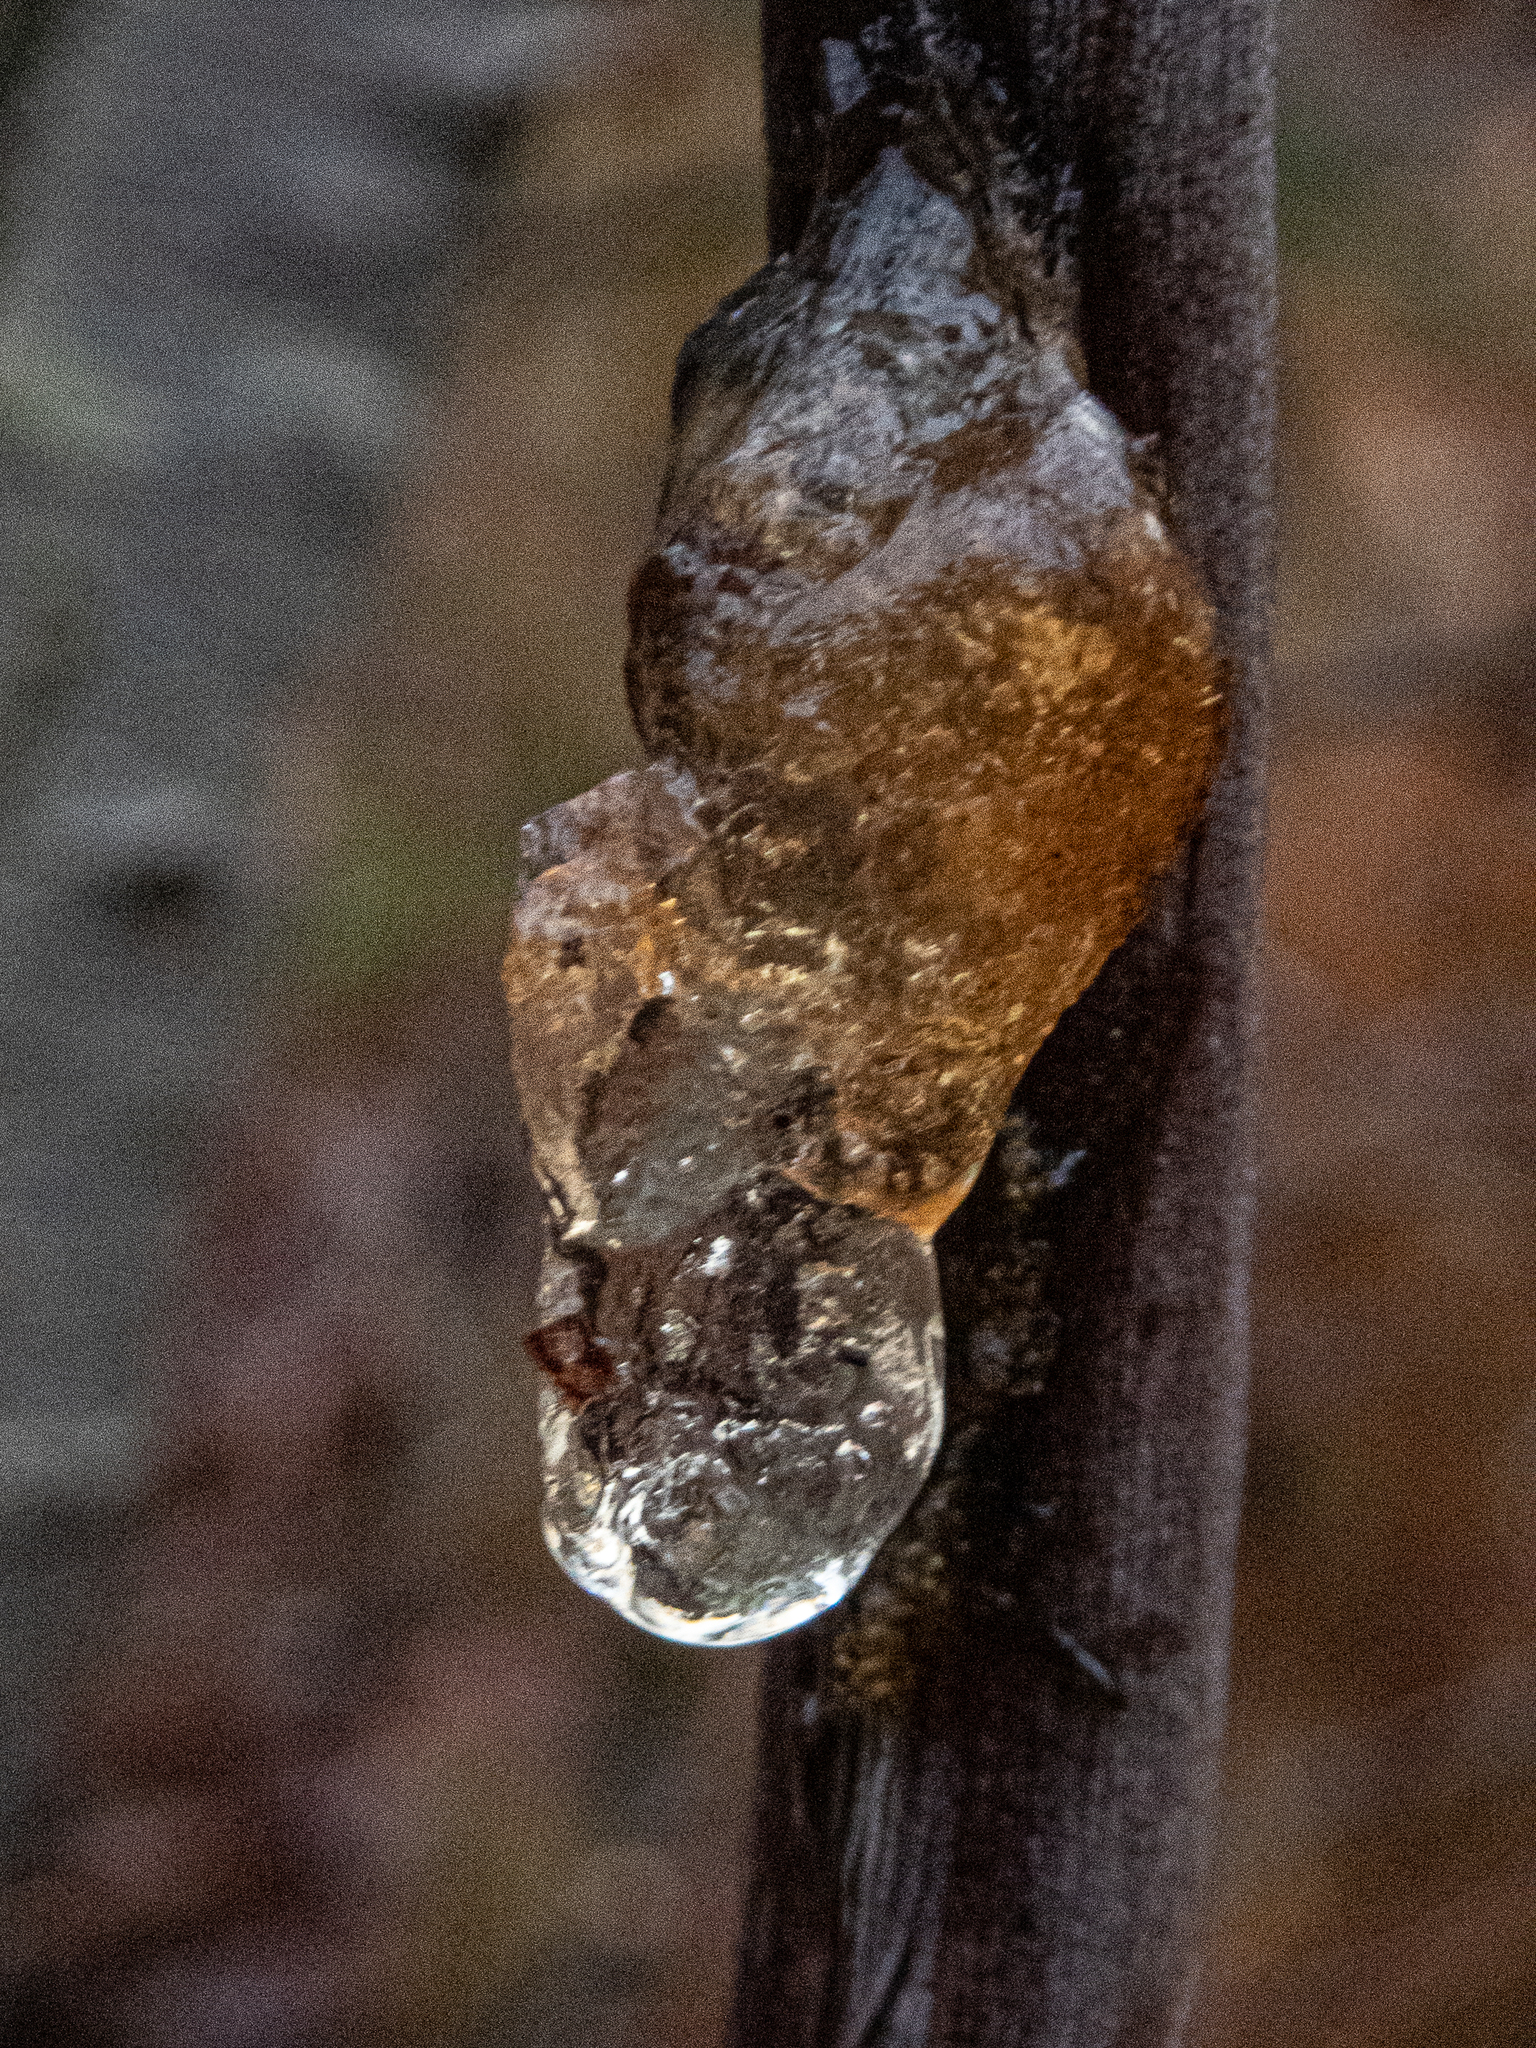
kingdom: Plantae
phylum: Tracheophyta
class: Magnoliopsida
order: Vitales
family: Vitaceae
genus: Vitis
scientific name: Vitis
